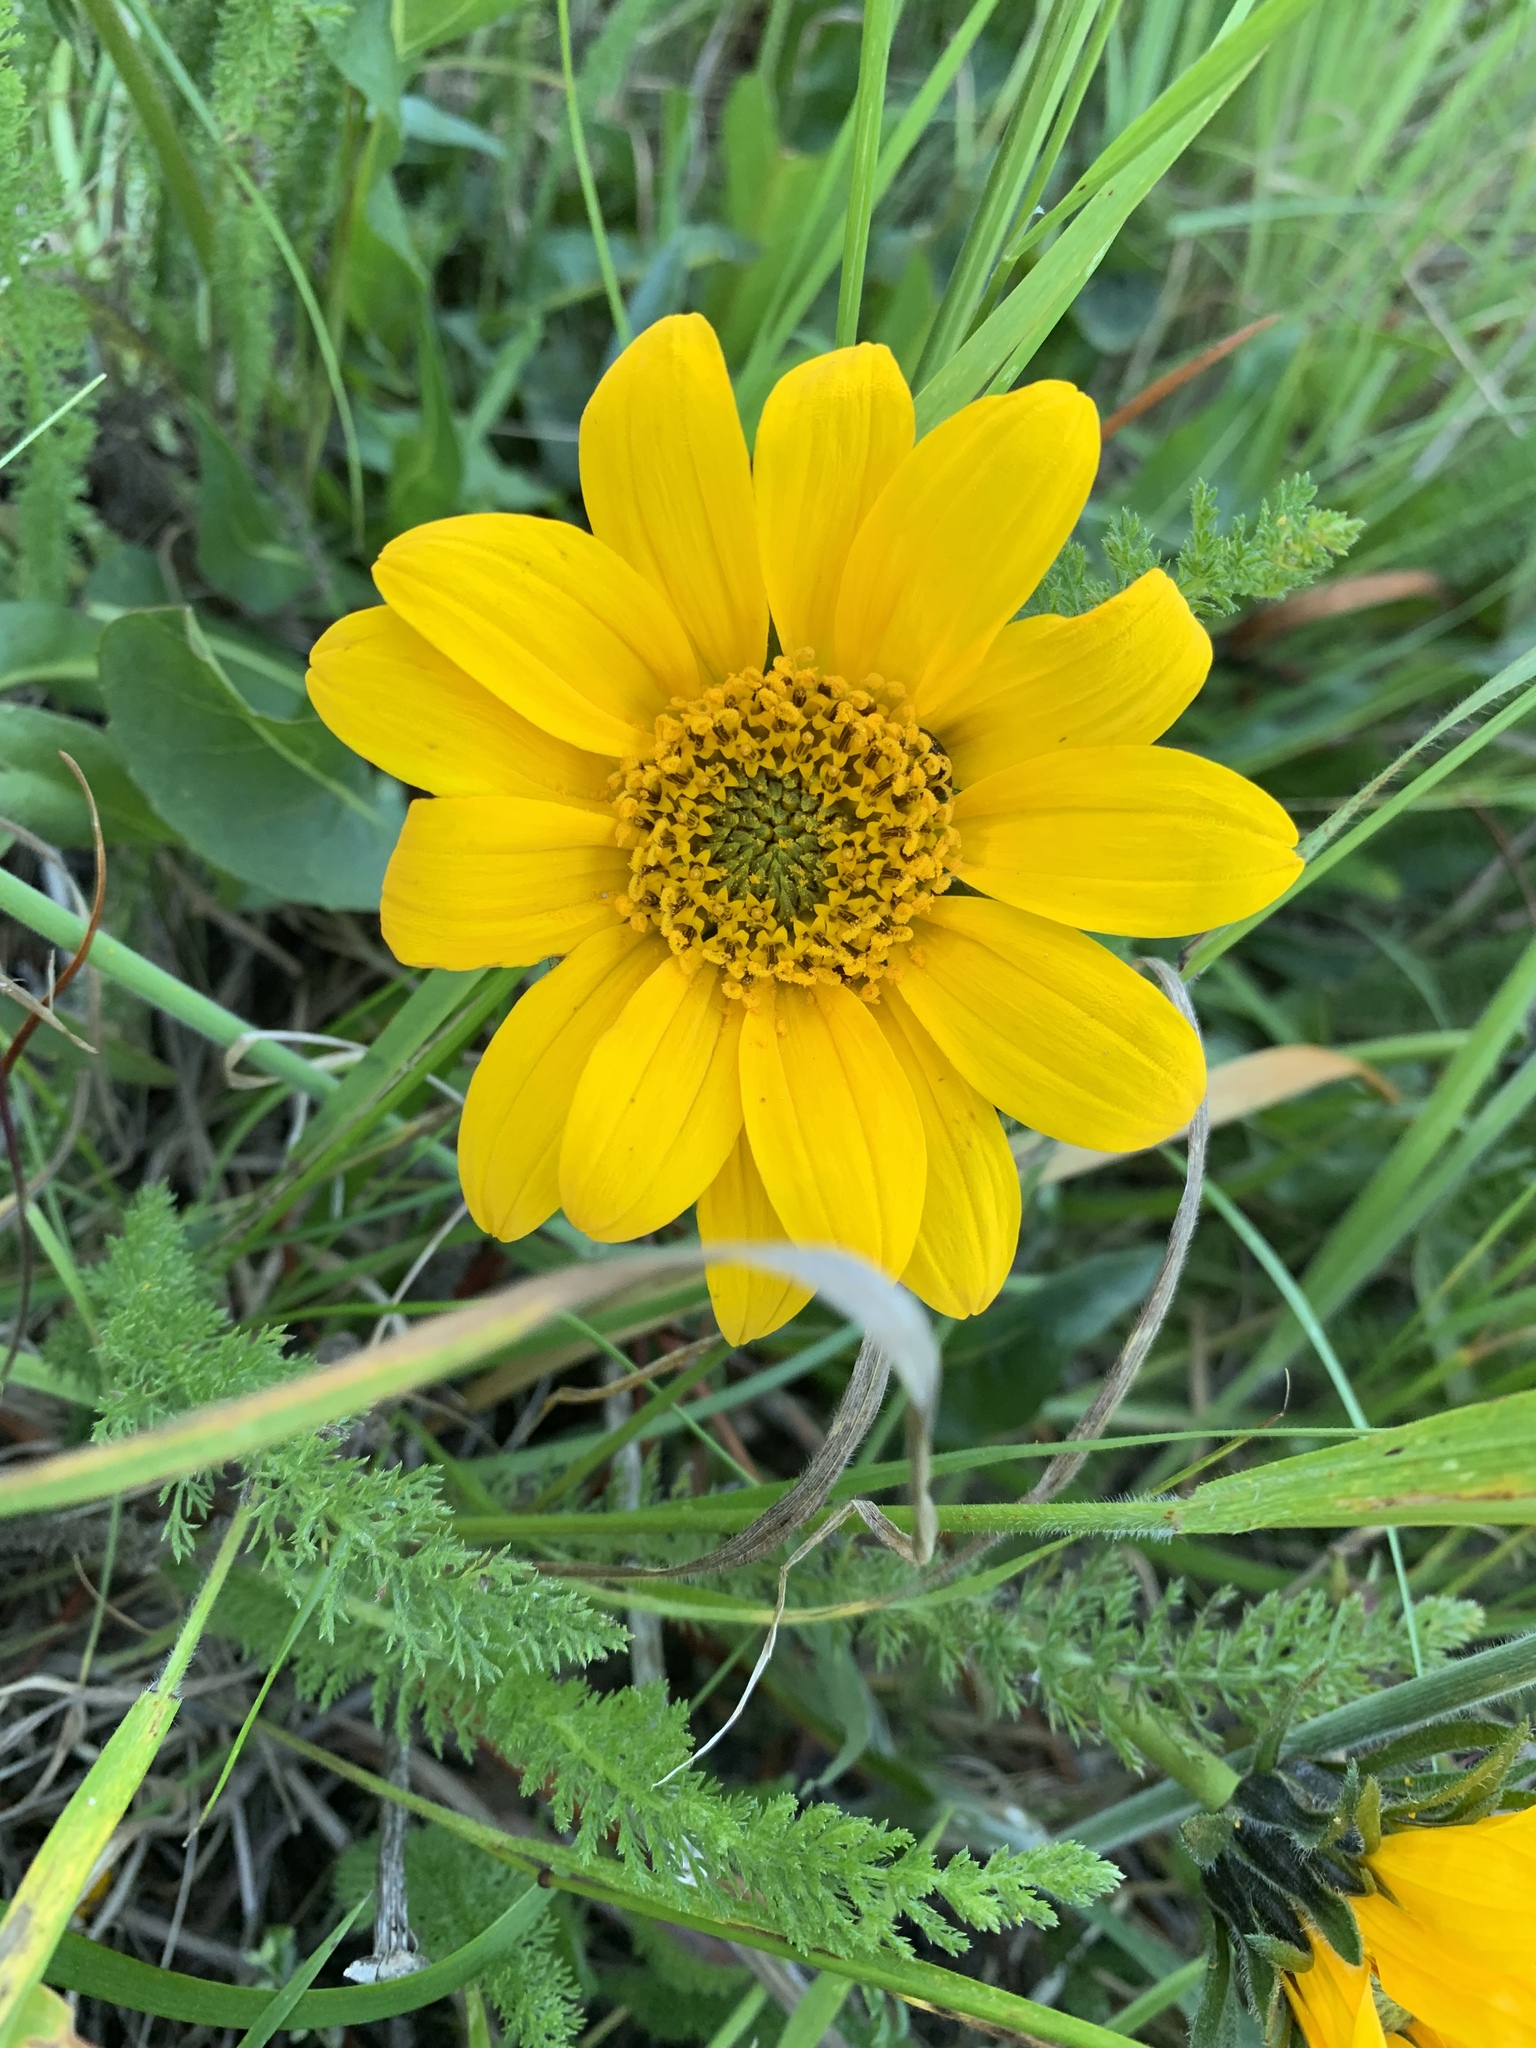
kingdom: Plantae
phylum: Tracheophyta
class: Magnoliopsida
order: Asterales
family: Asteraceae
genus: Wyethia
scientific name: Wyethia angustifolia
